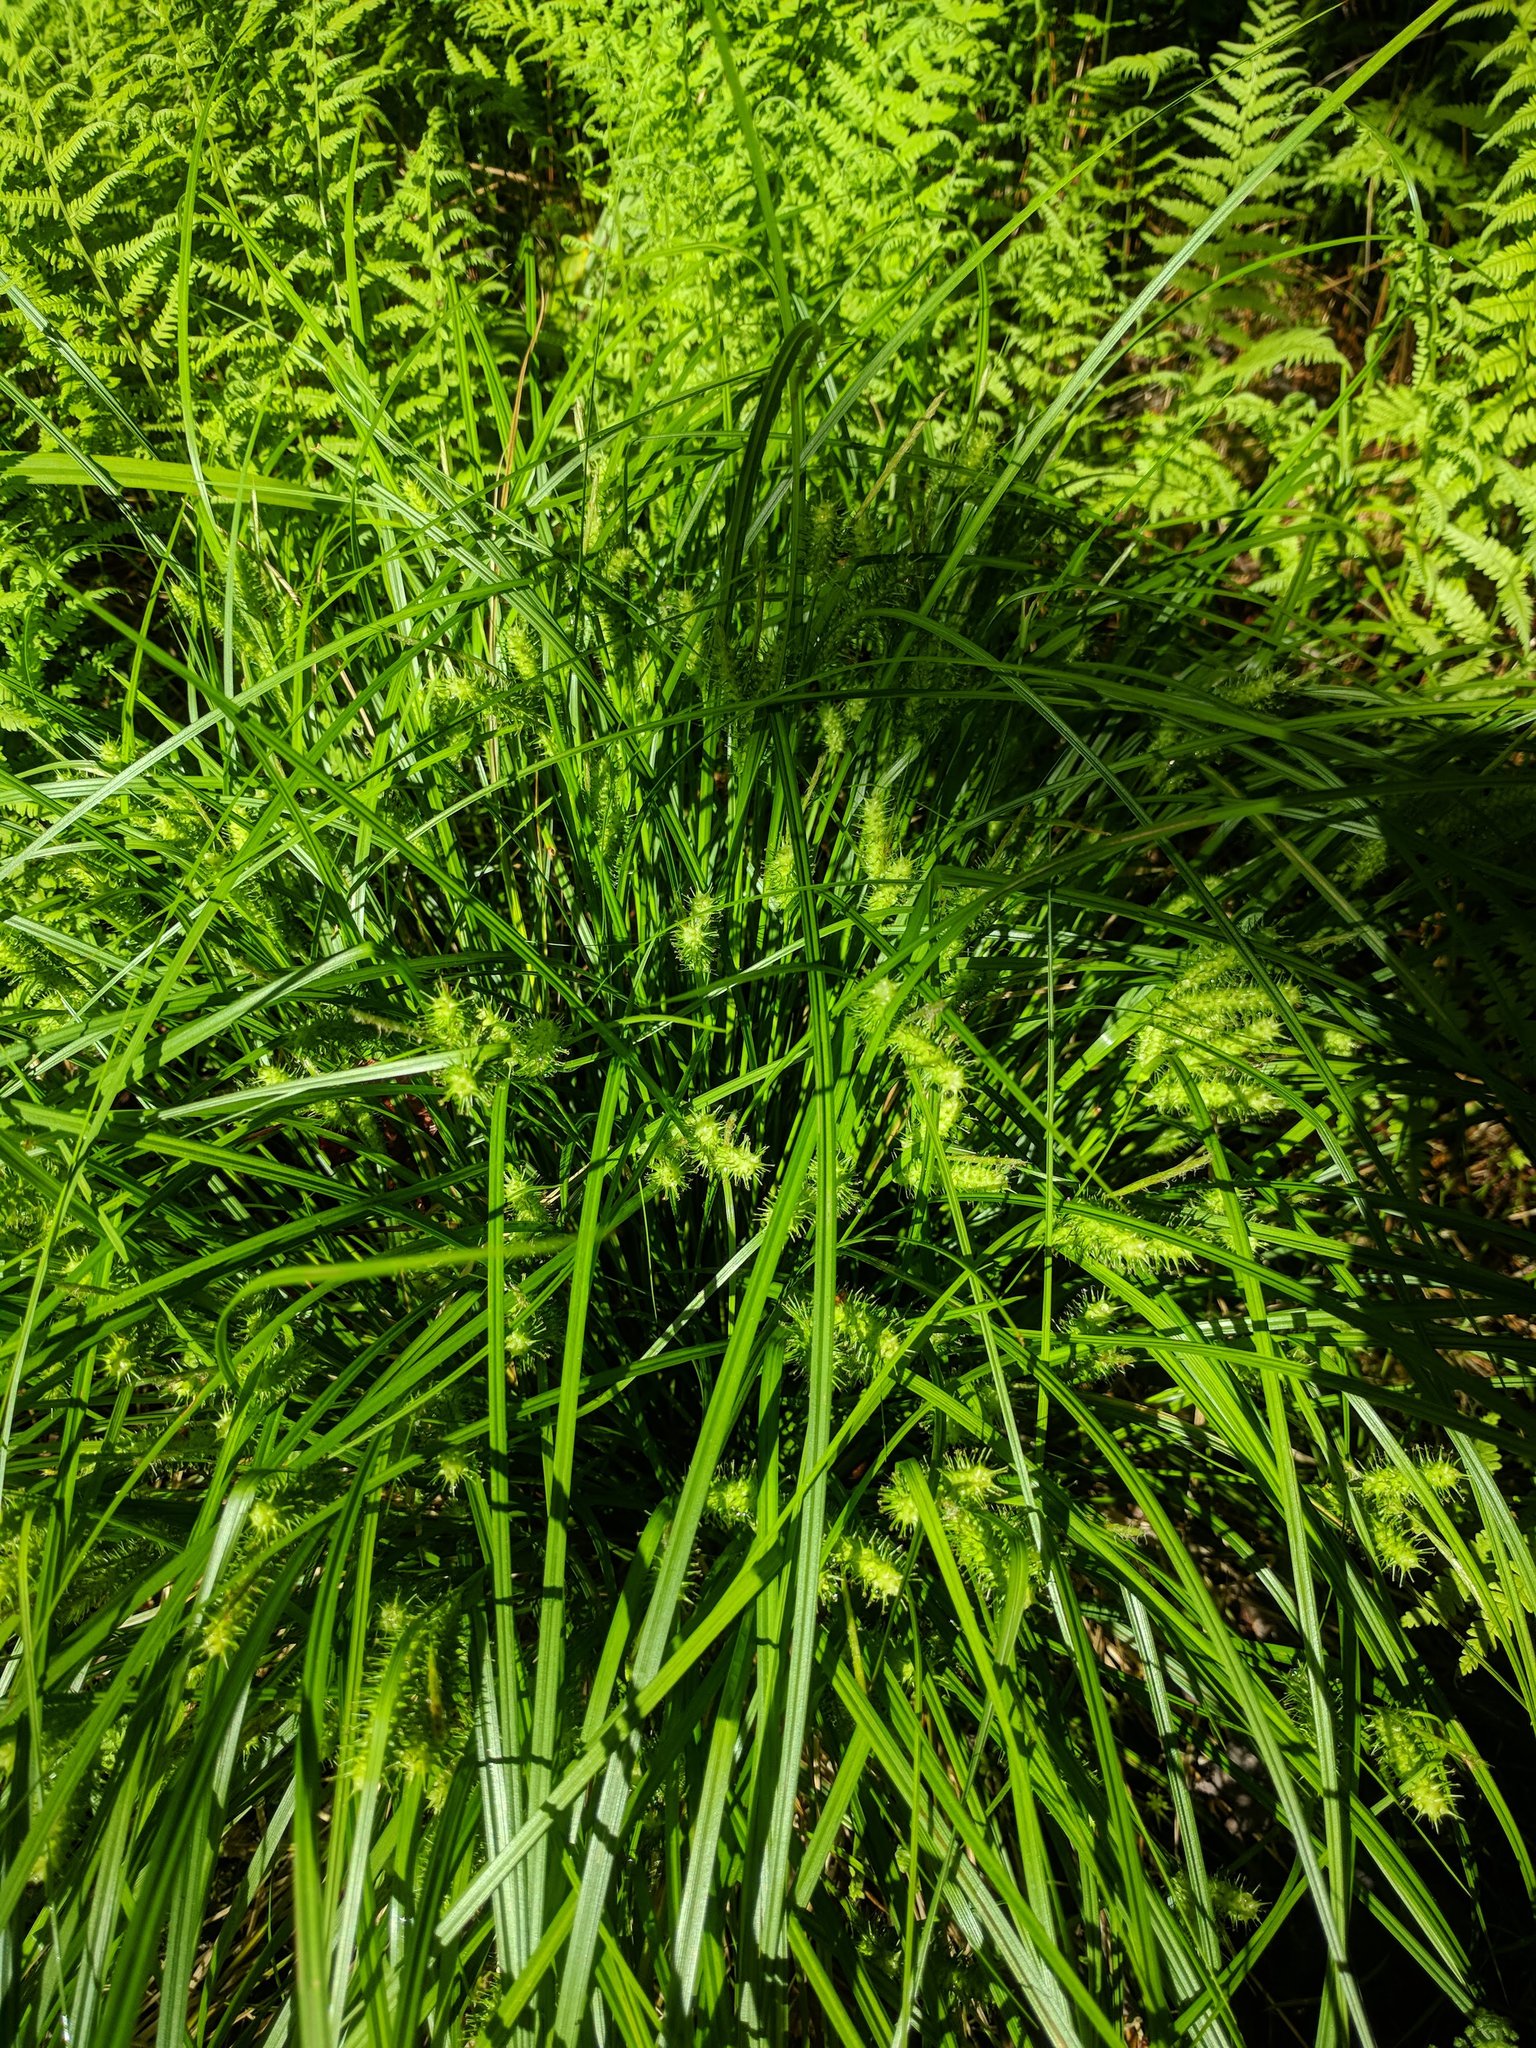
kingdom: Plantae
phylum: Tracheophyta
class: Liliopsida
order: Poales
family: Cyperaceae
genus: Carex
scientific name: Carex baileyi
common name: Bailey's sedge
